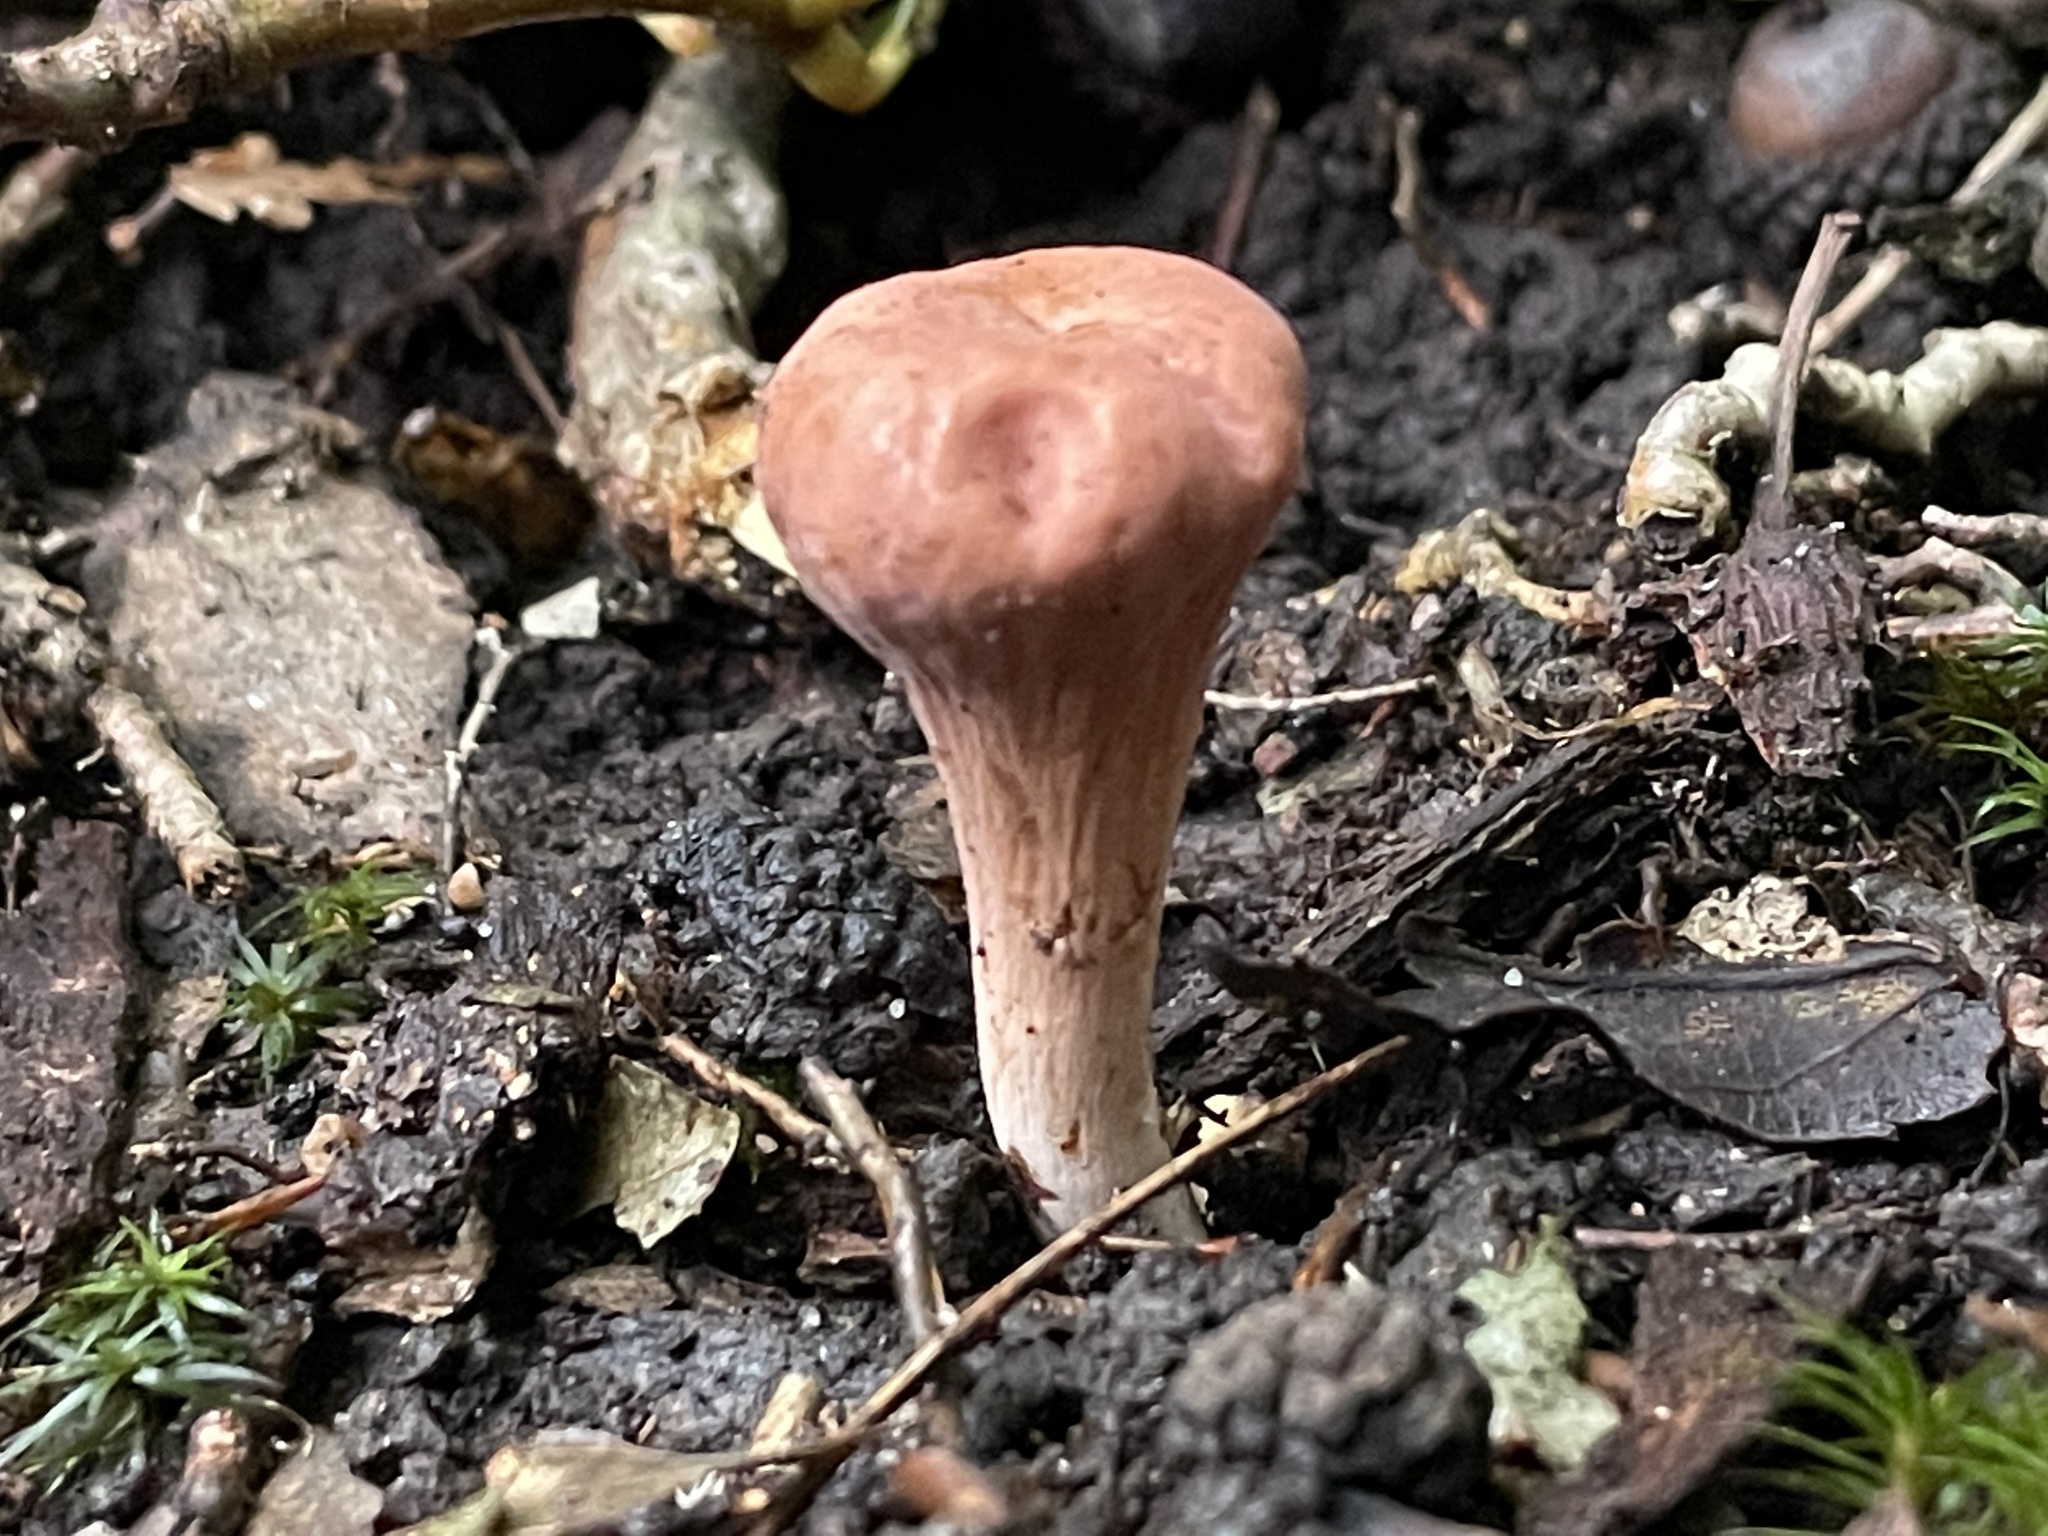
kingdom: Fungi
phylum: Basidiomycota
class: Agaricomycetes
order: Gomphales
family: Clavariadelphaceae
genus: Clavariadelphus
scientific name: Clavariadelphus truncatus
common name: Truncated club
